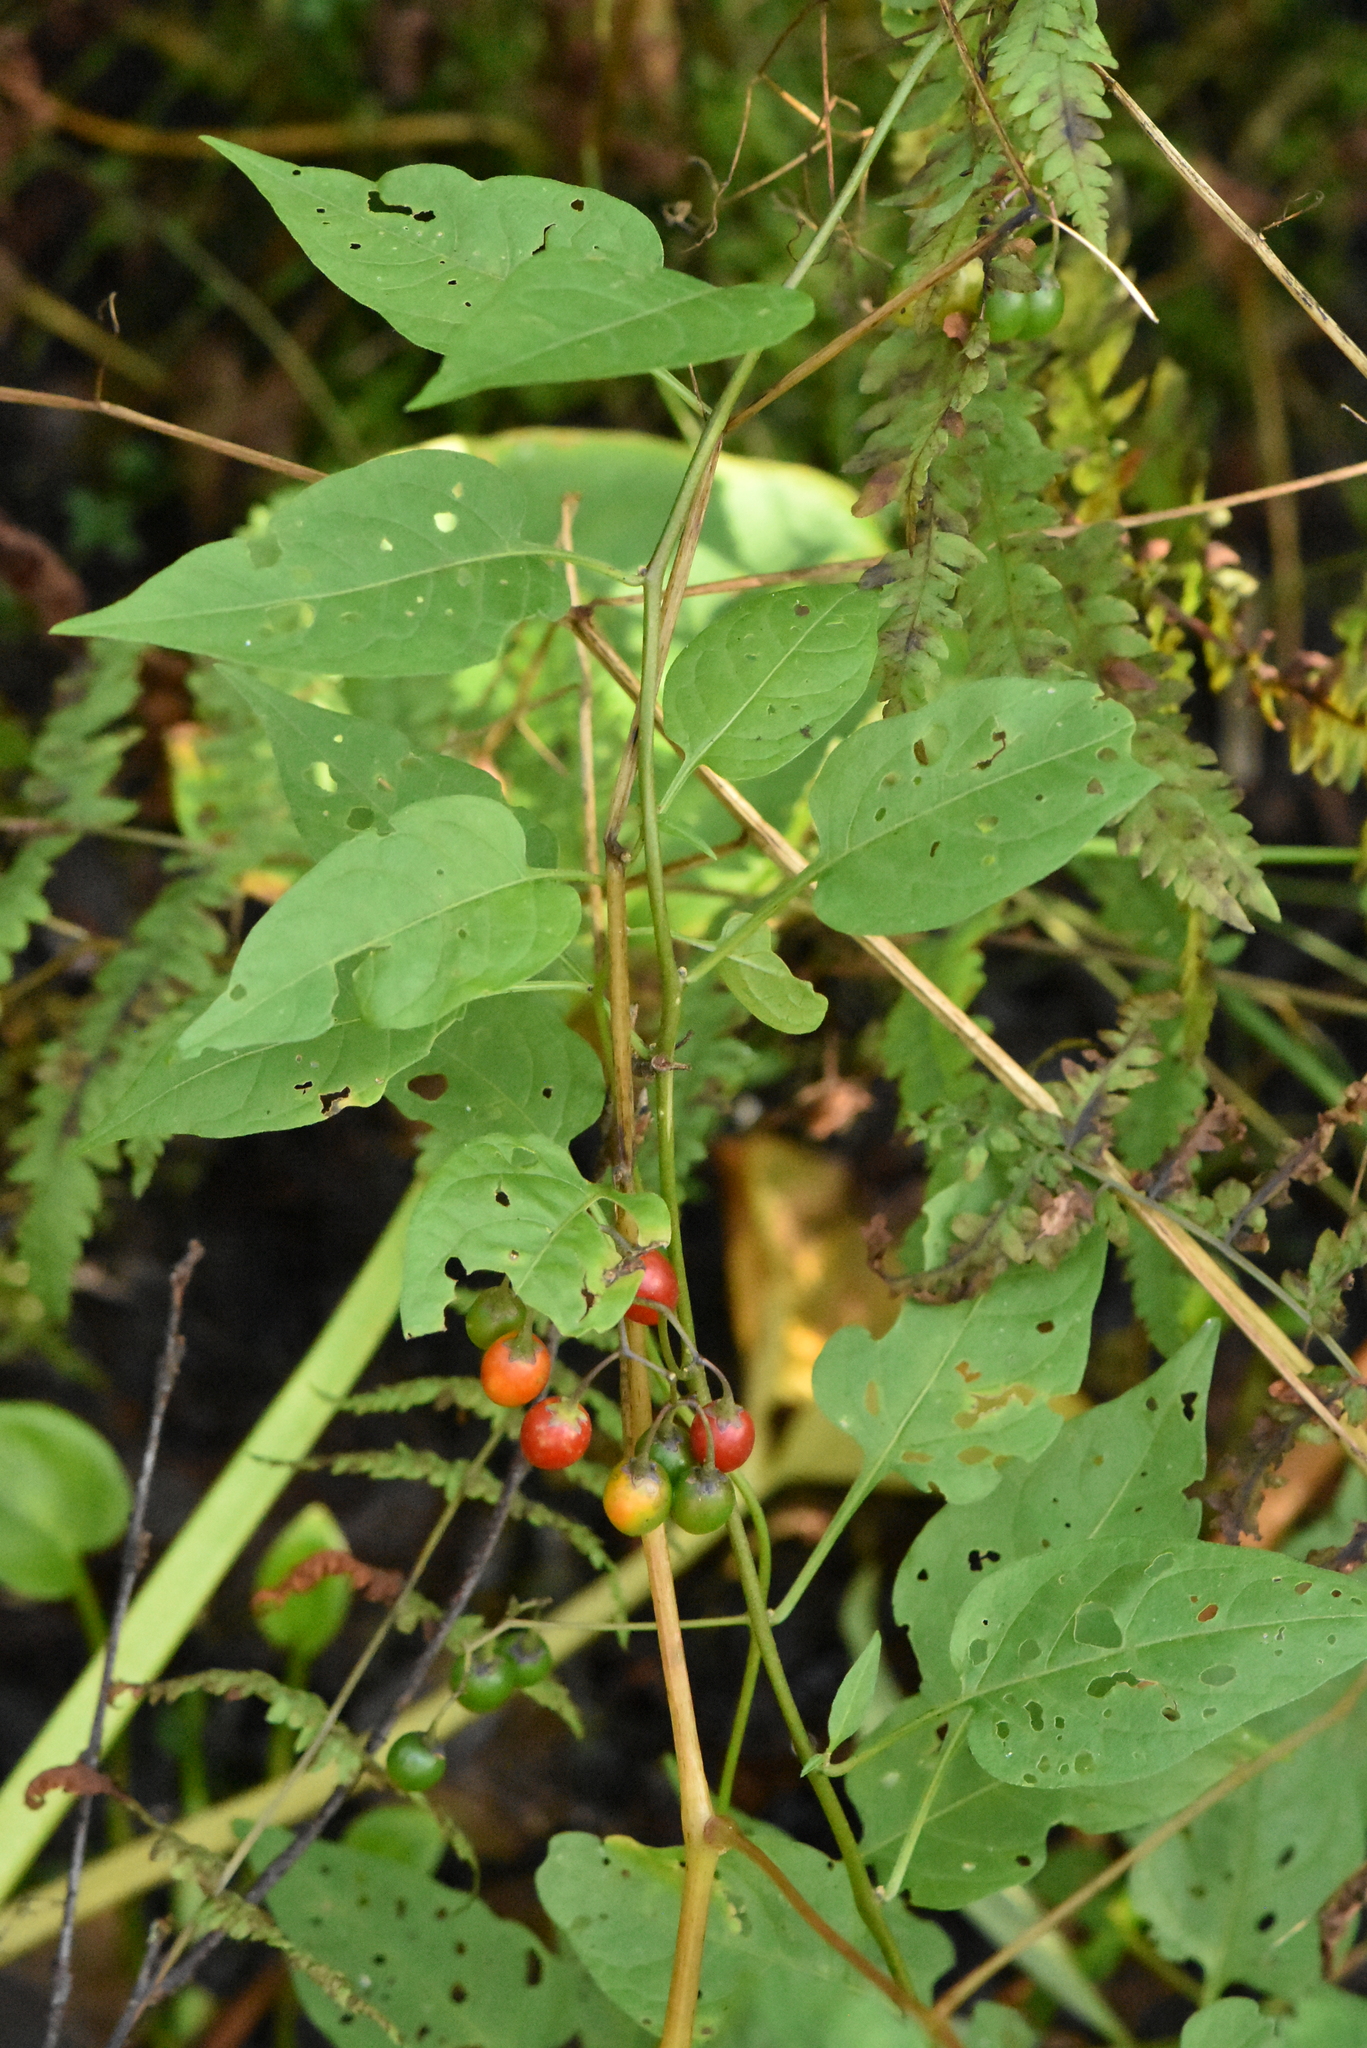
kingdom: Plantae
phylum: Tracheophyta
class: Magnoliopsida
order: Solanales
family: Solanaceae
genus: Solanum
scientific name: Solanum dulcamara
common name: Climbing nightshade
